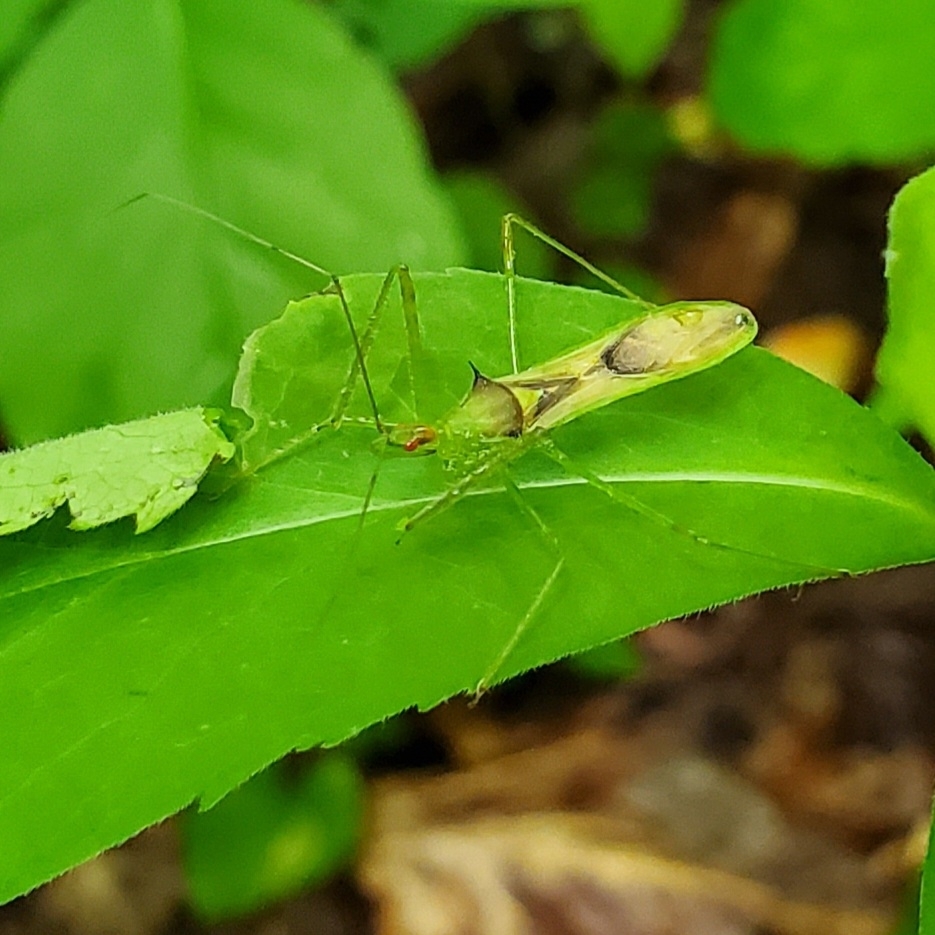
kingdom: Animalia
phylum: Arthropoda
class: Insecta
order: Hemiptera
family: Reduviidae
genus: Zelus
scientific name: Zelus luridus
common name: Pale green assassin bug
